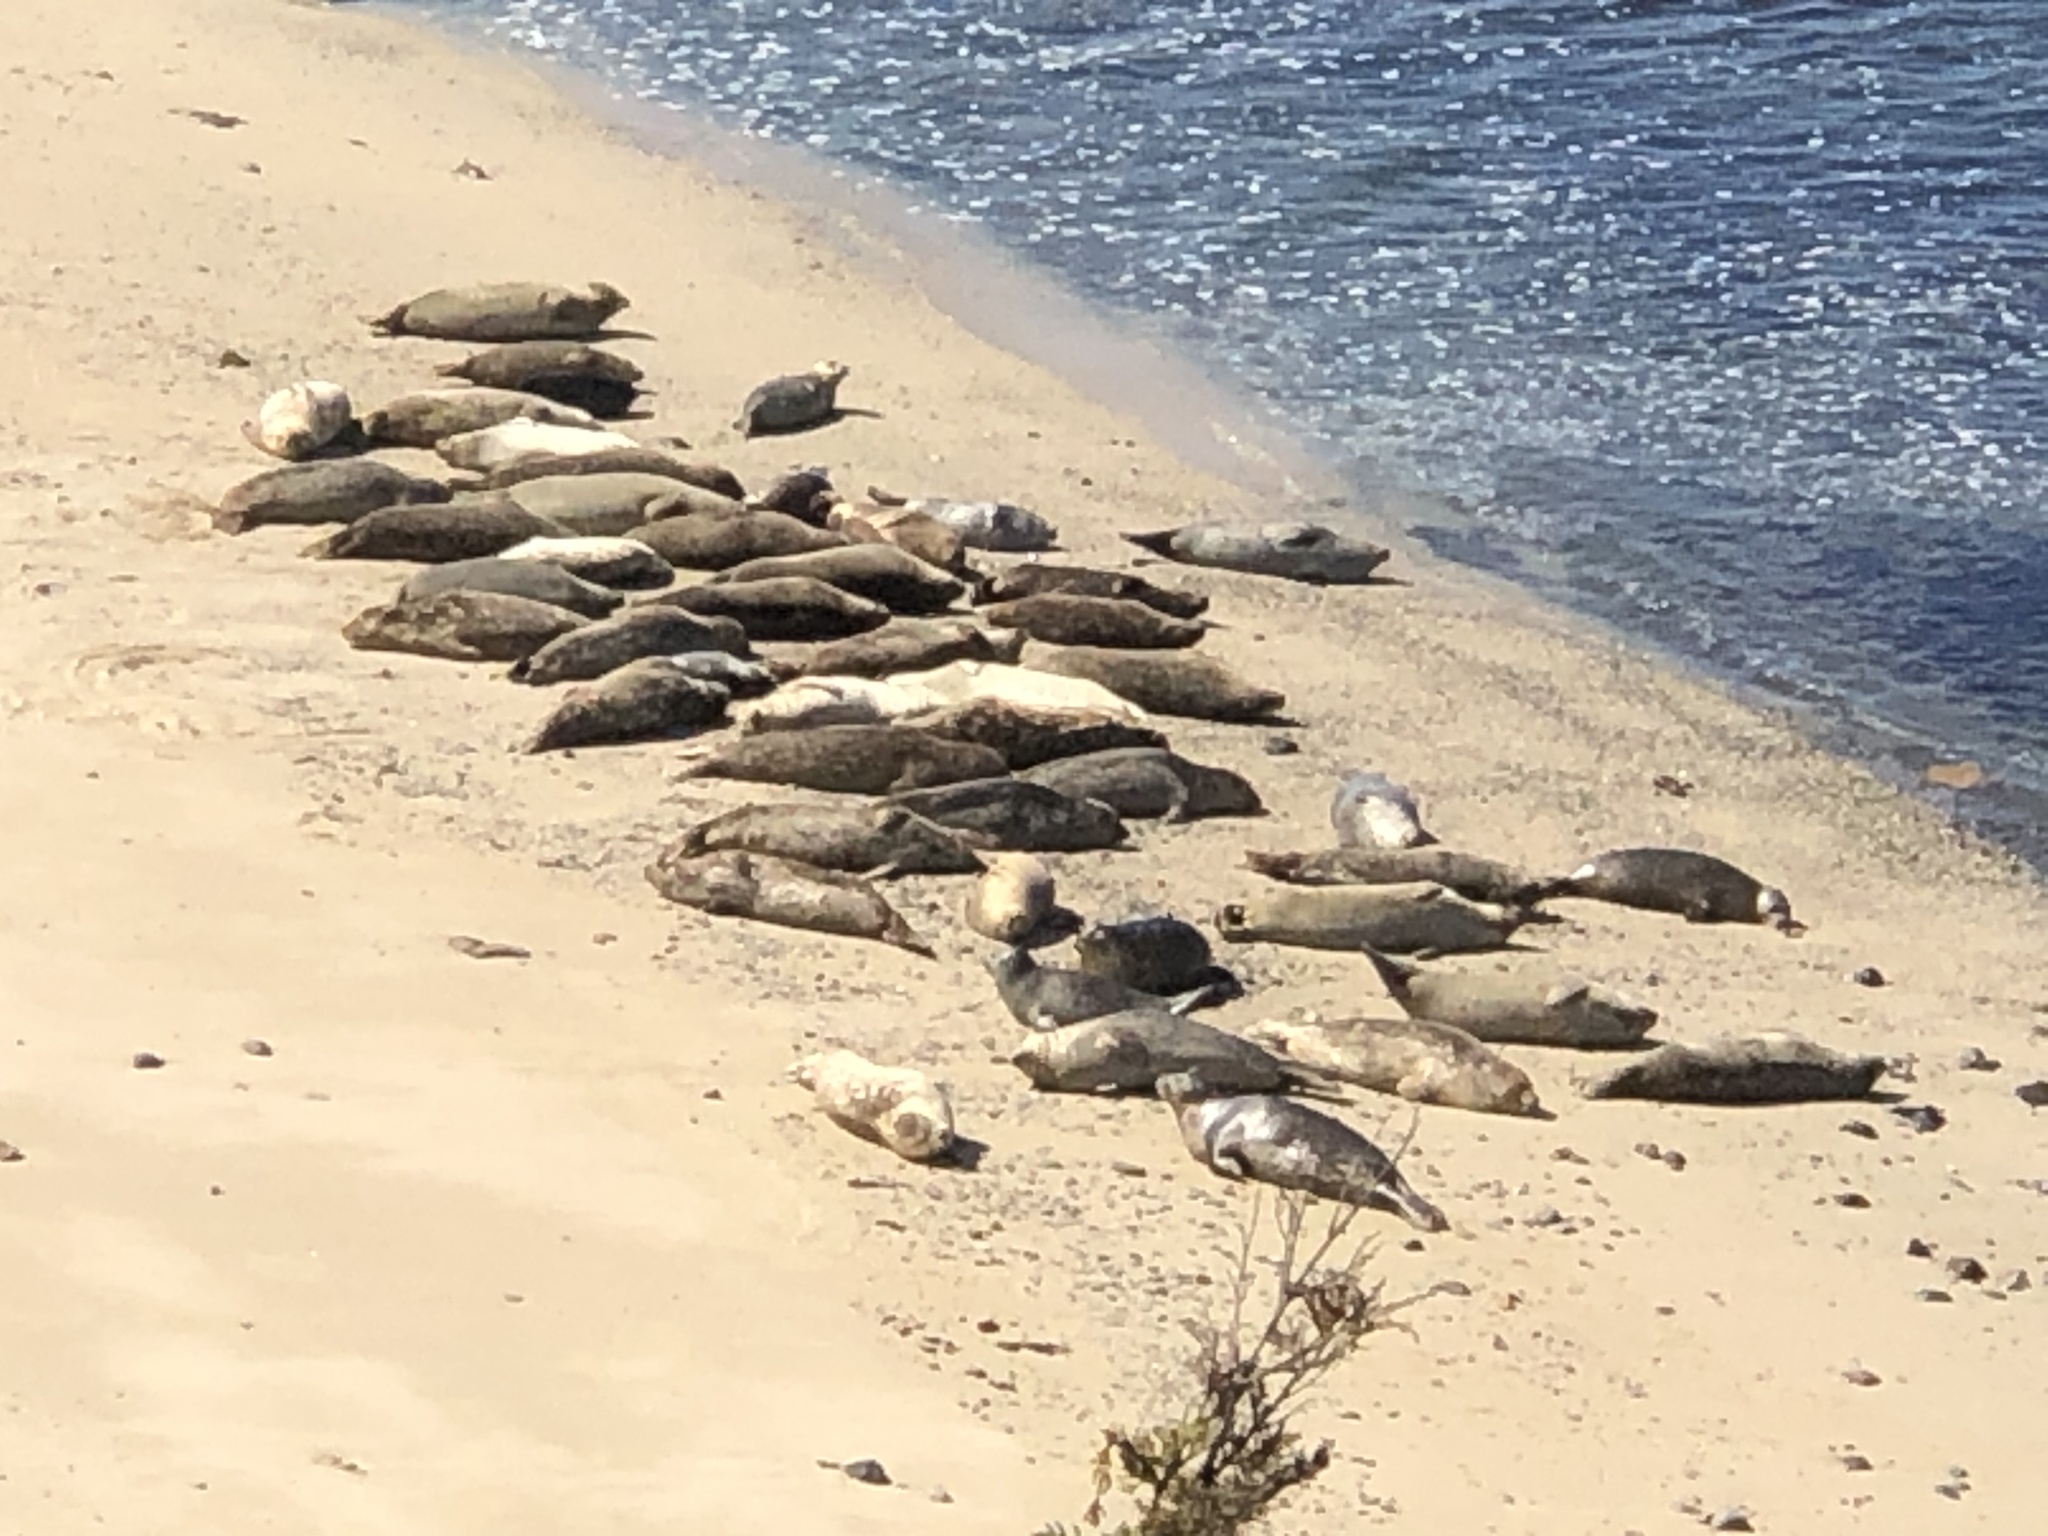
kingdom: Animalia
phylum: Chordata
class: Mammalia
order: Carnivora
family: Phocidae
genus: Phoca
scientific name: Phoca vitulina
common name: Harbor seal
